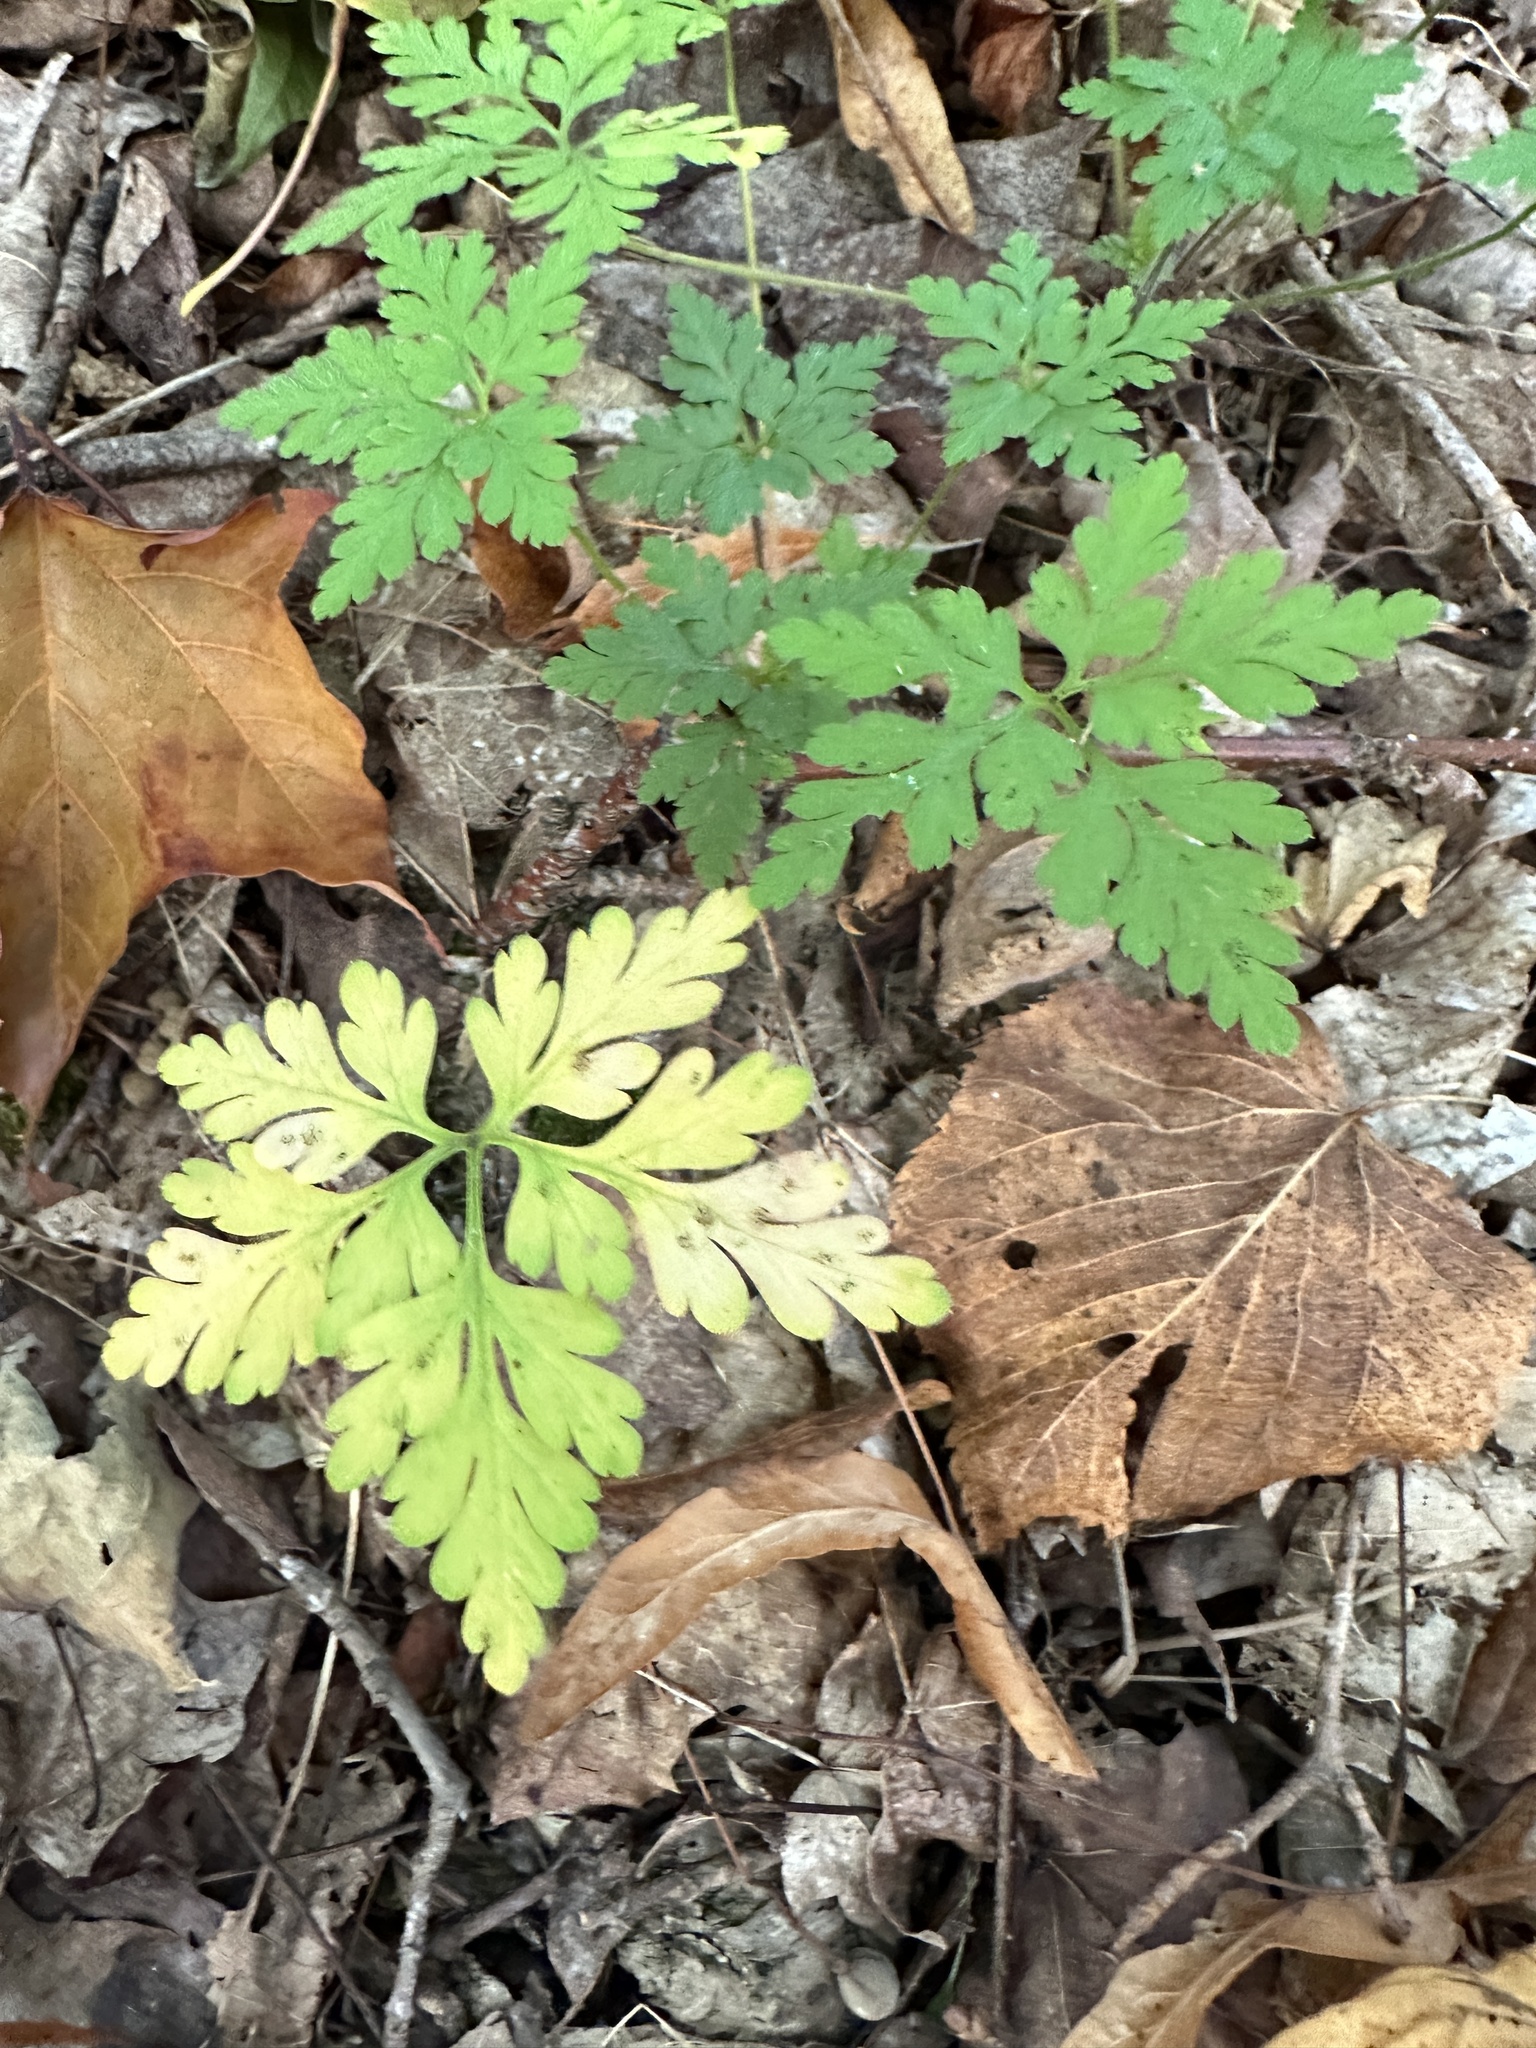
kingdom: Plantae
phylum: Tracheophyta
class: Magnoliopsida
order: Geraniales
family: Geraniaceae
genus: Geranium
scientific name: Geranium robertianum
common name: Herb-robert
